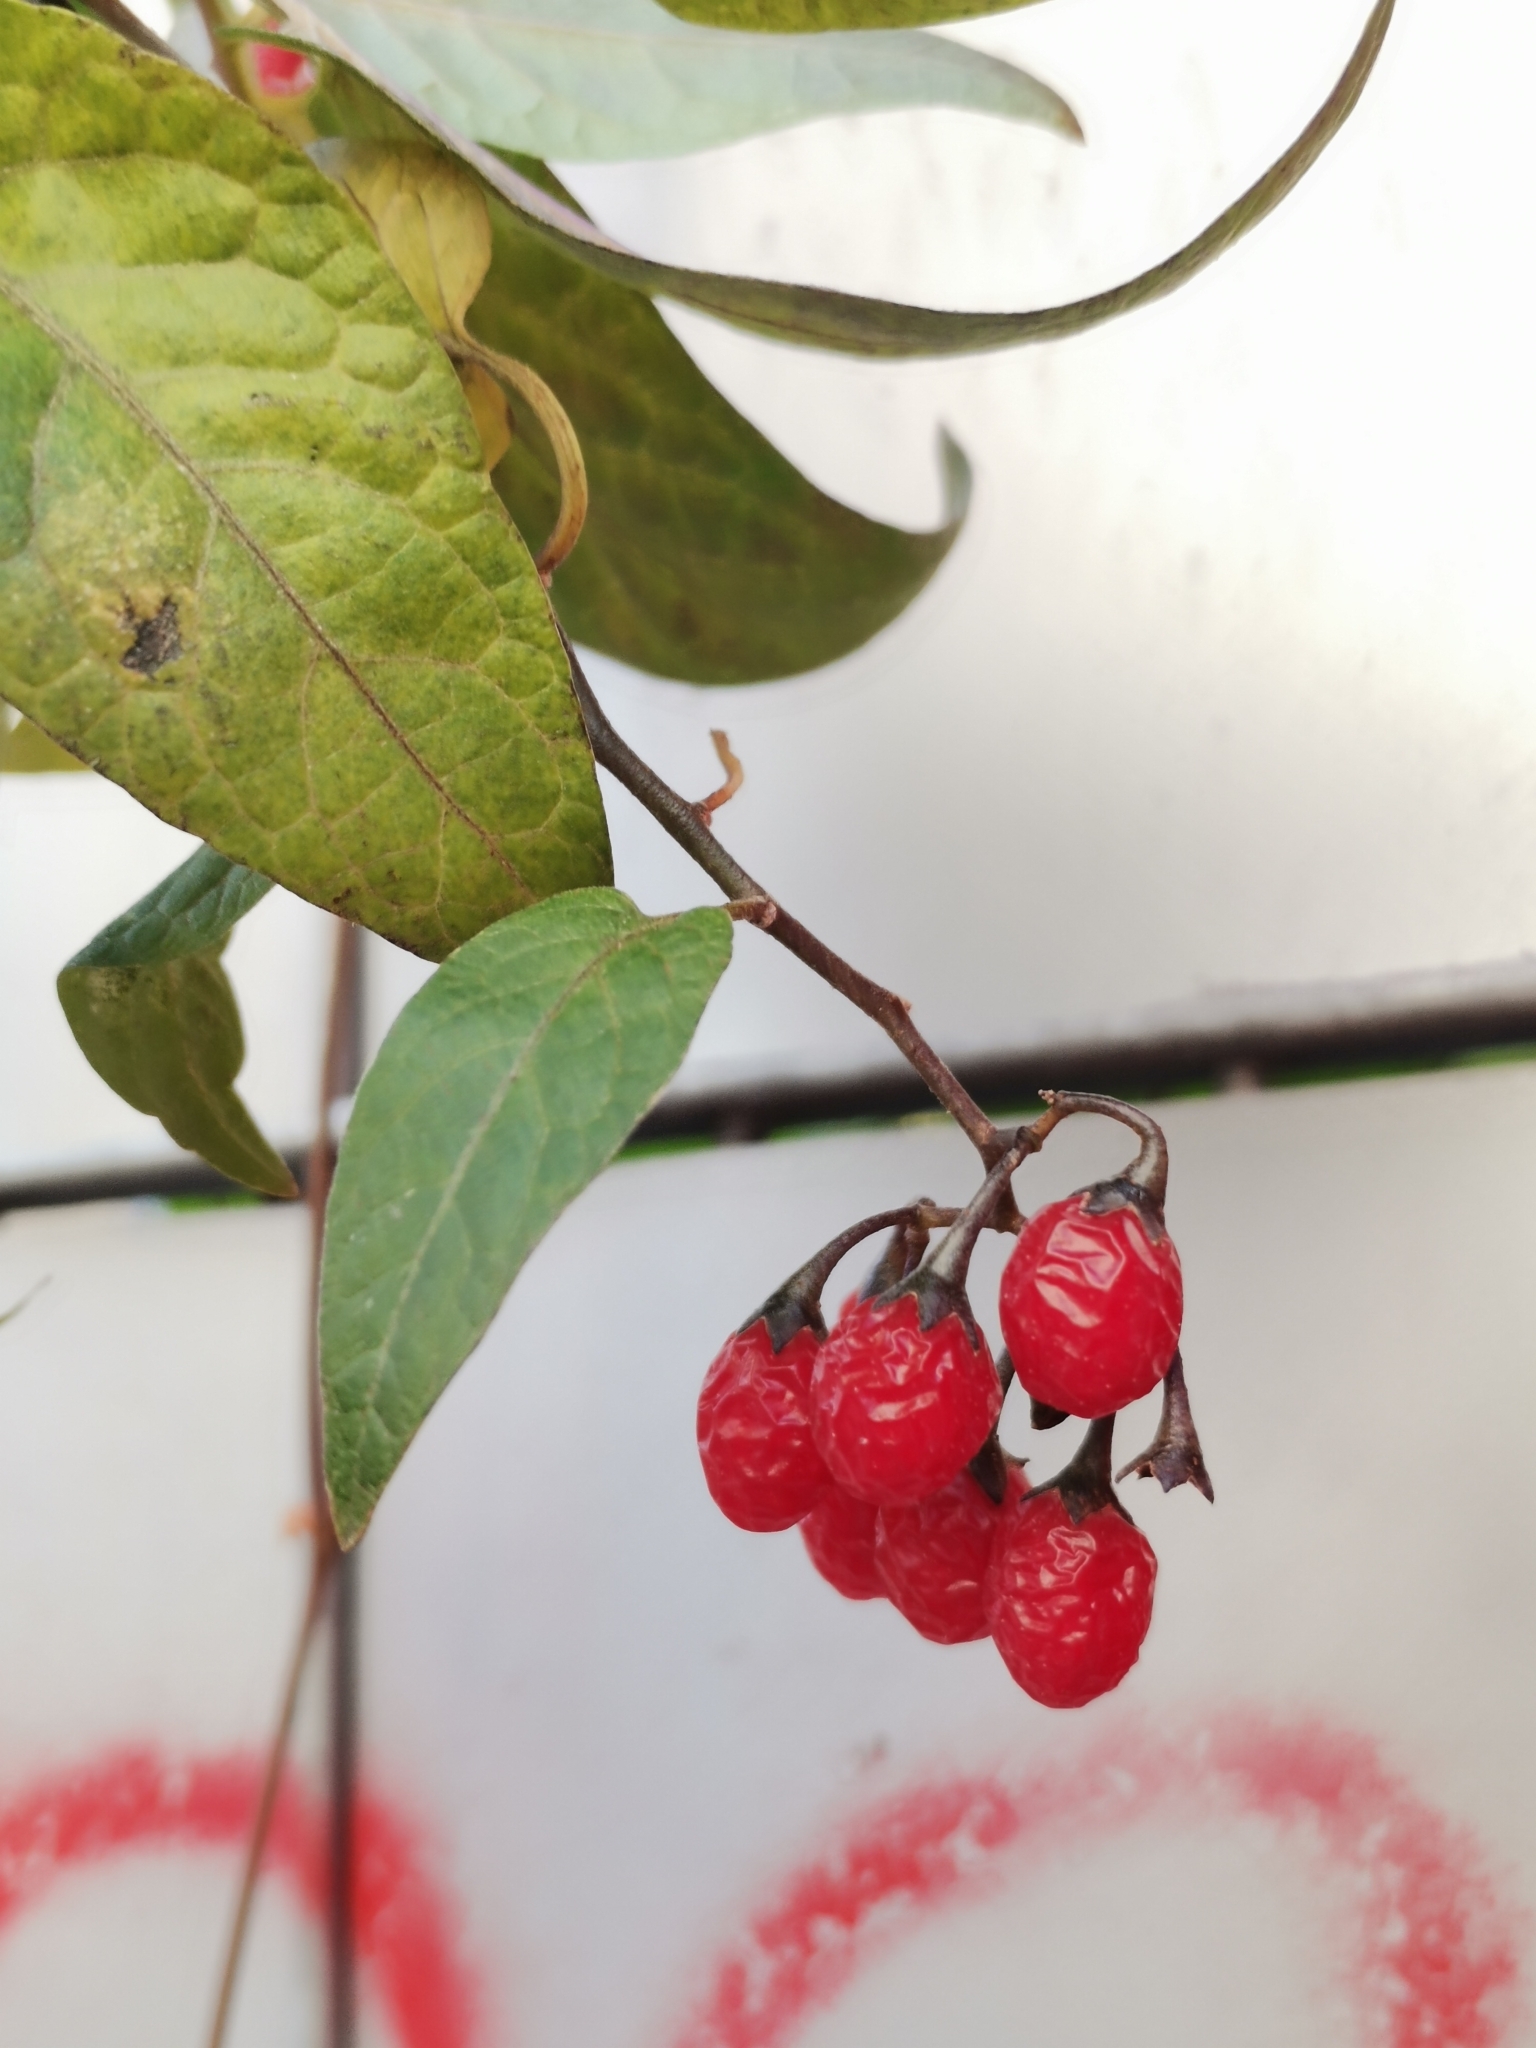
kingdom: Plantae
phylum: Tracheophyta
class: Magnoliopsida
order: Solanales
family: Solanaceae
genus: Solanum
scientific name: Solanum dulcamara
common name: Climbing nightshade
